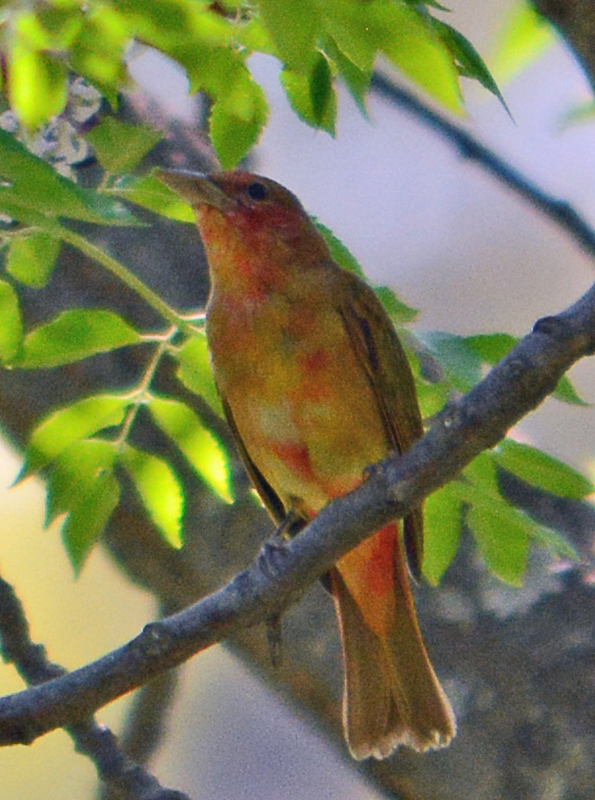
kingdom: Animalia
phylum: Chordata
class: Aves
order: Passeriformes
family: Cardinalidae
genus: Piranga
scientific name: Piranga rubra
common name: Summer tanager
